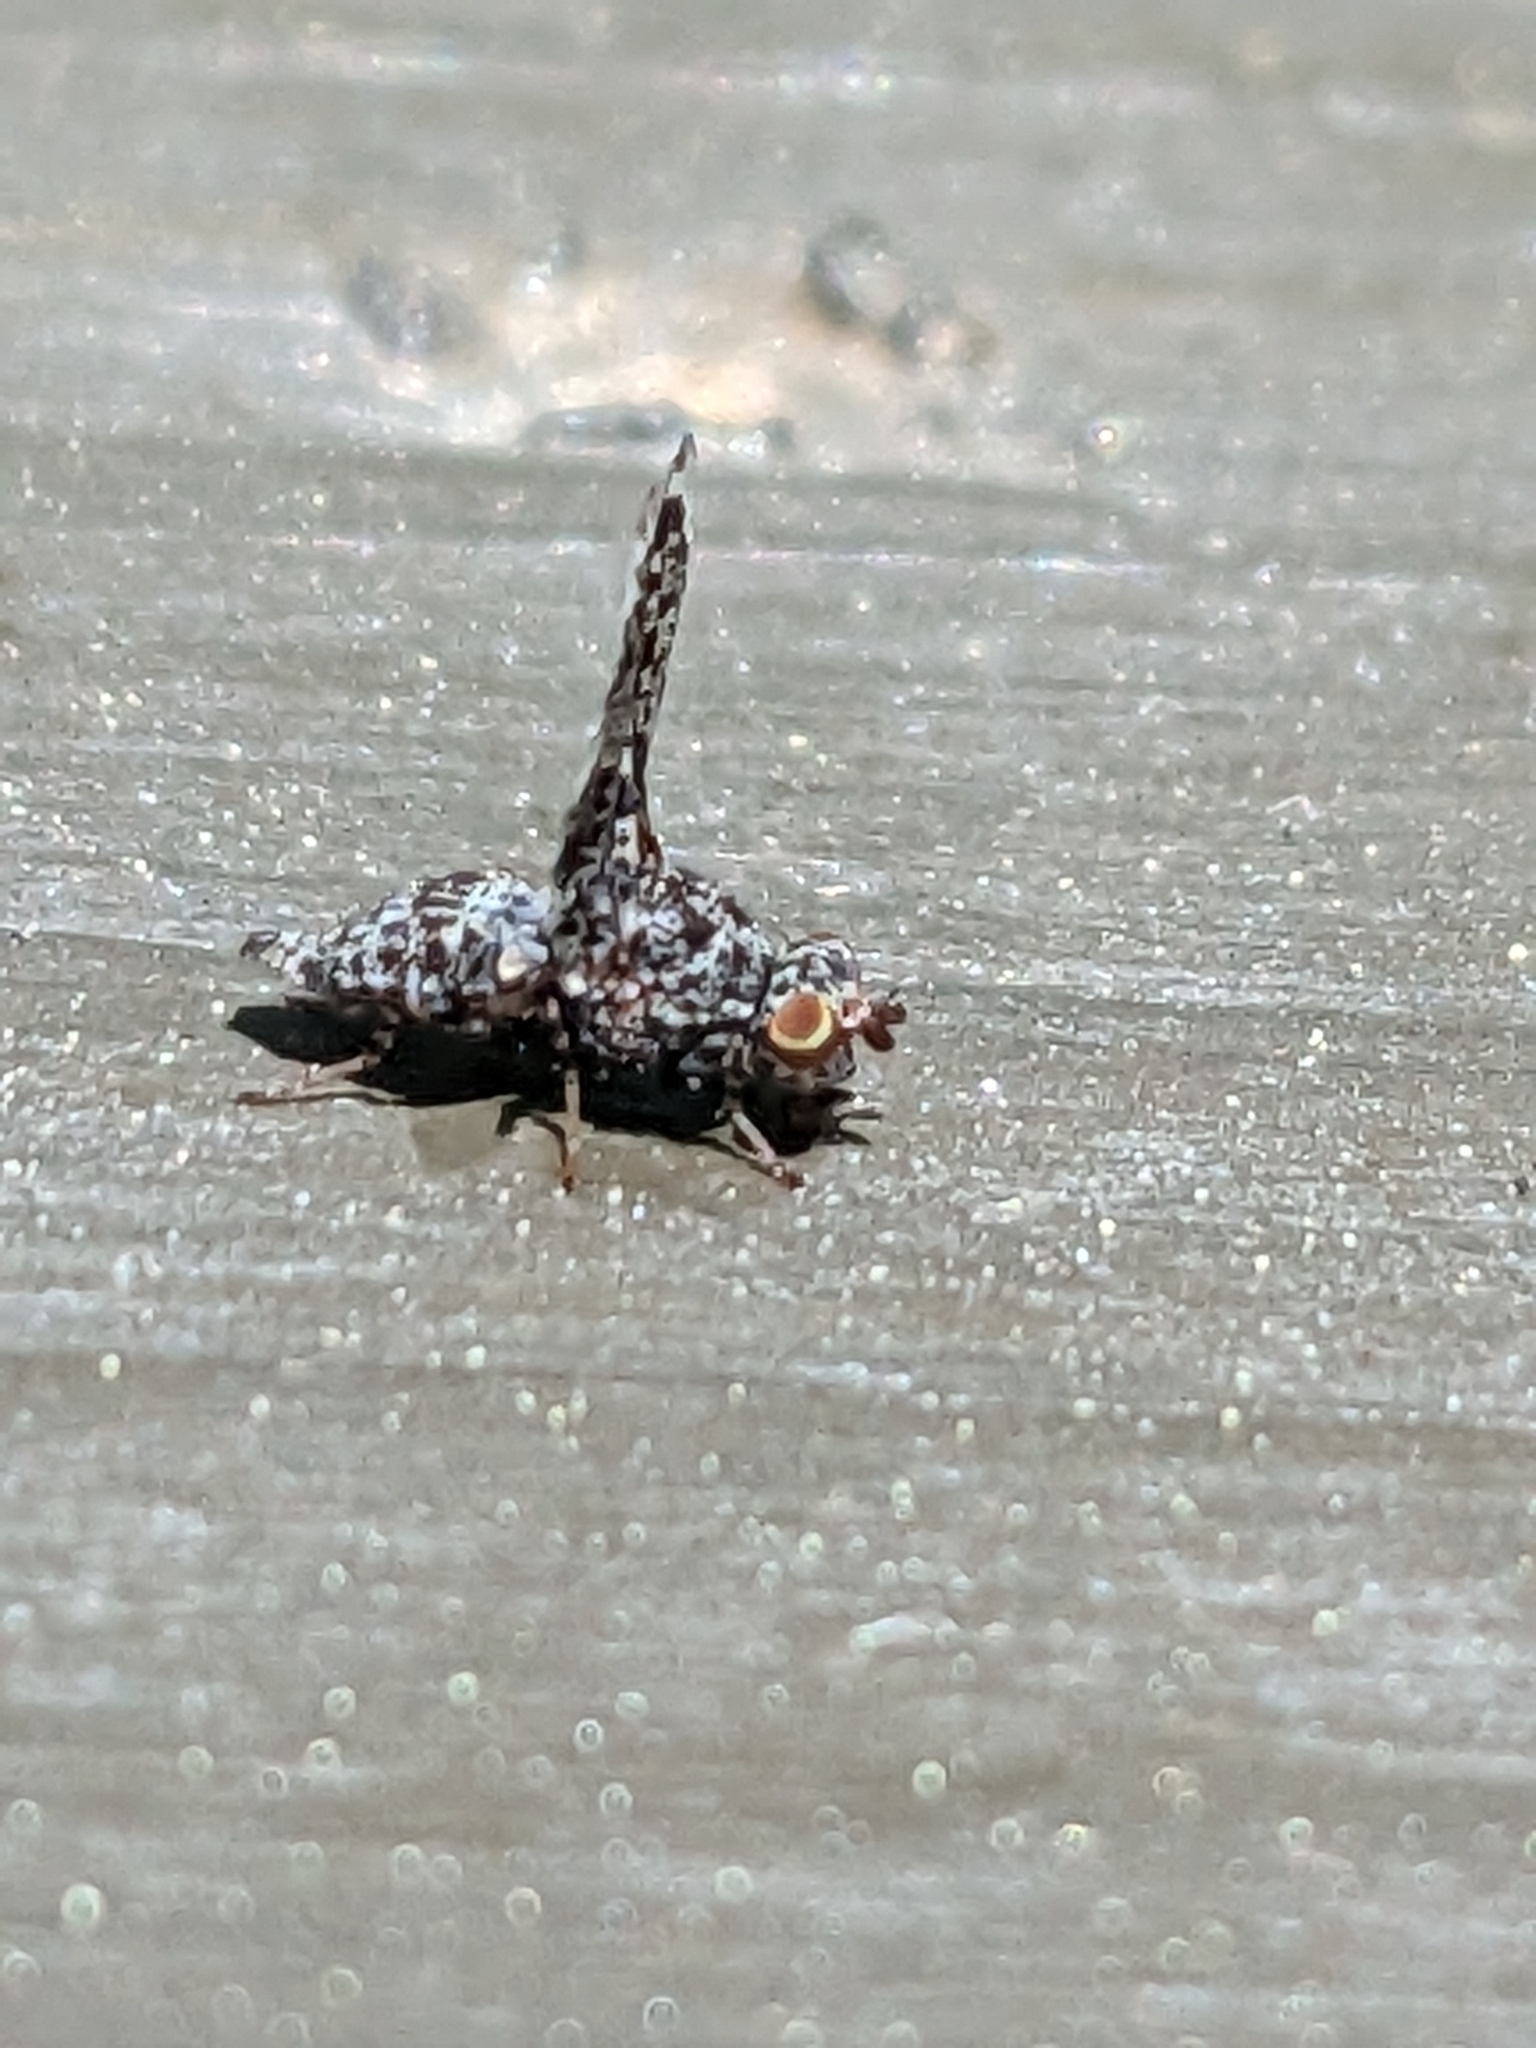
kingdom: Animalia
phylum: Arthropoda
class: Insecta
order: Diptera
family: Ulidiidae
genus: Callopistromyia
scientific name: Callopistromyia annulipes
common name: Peacock fly
